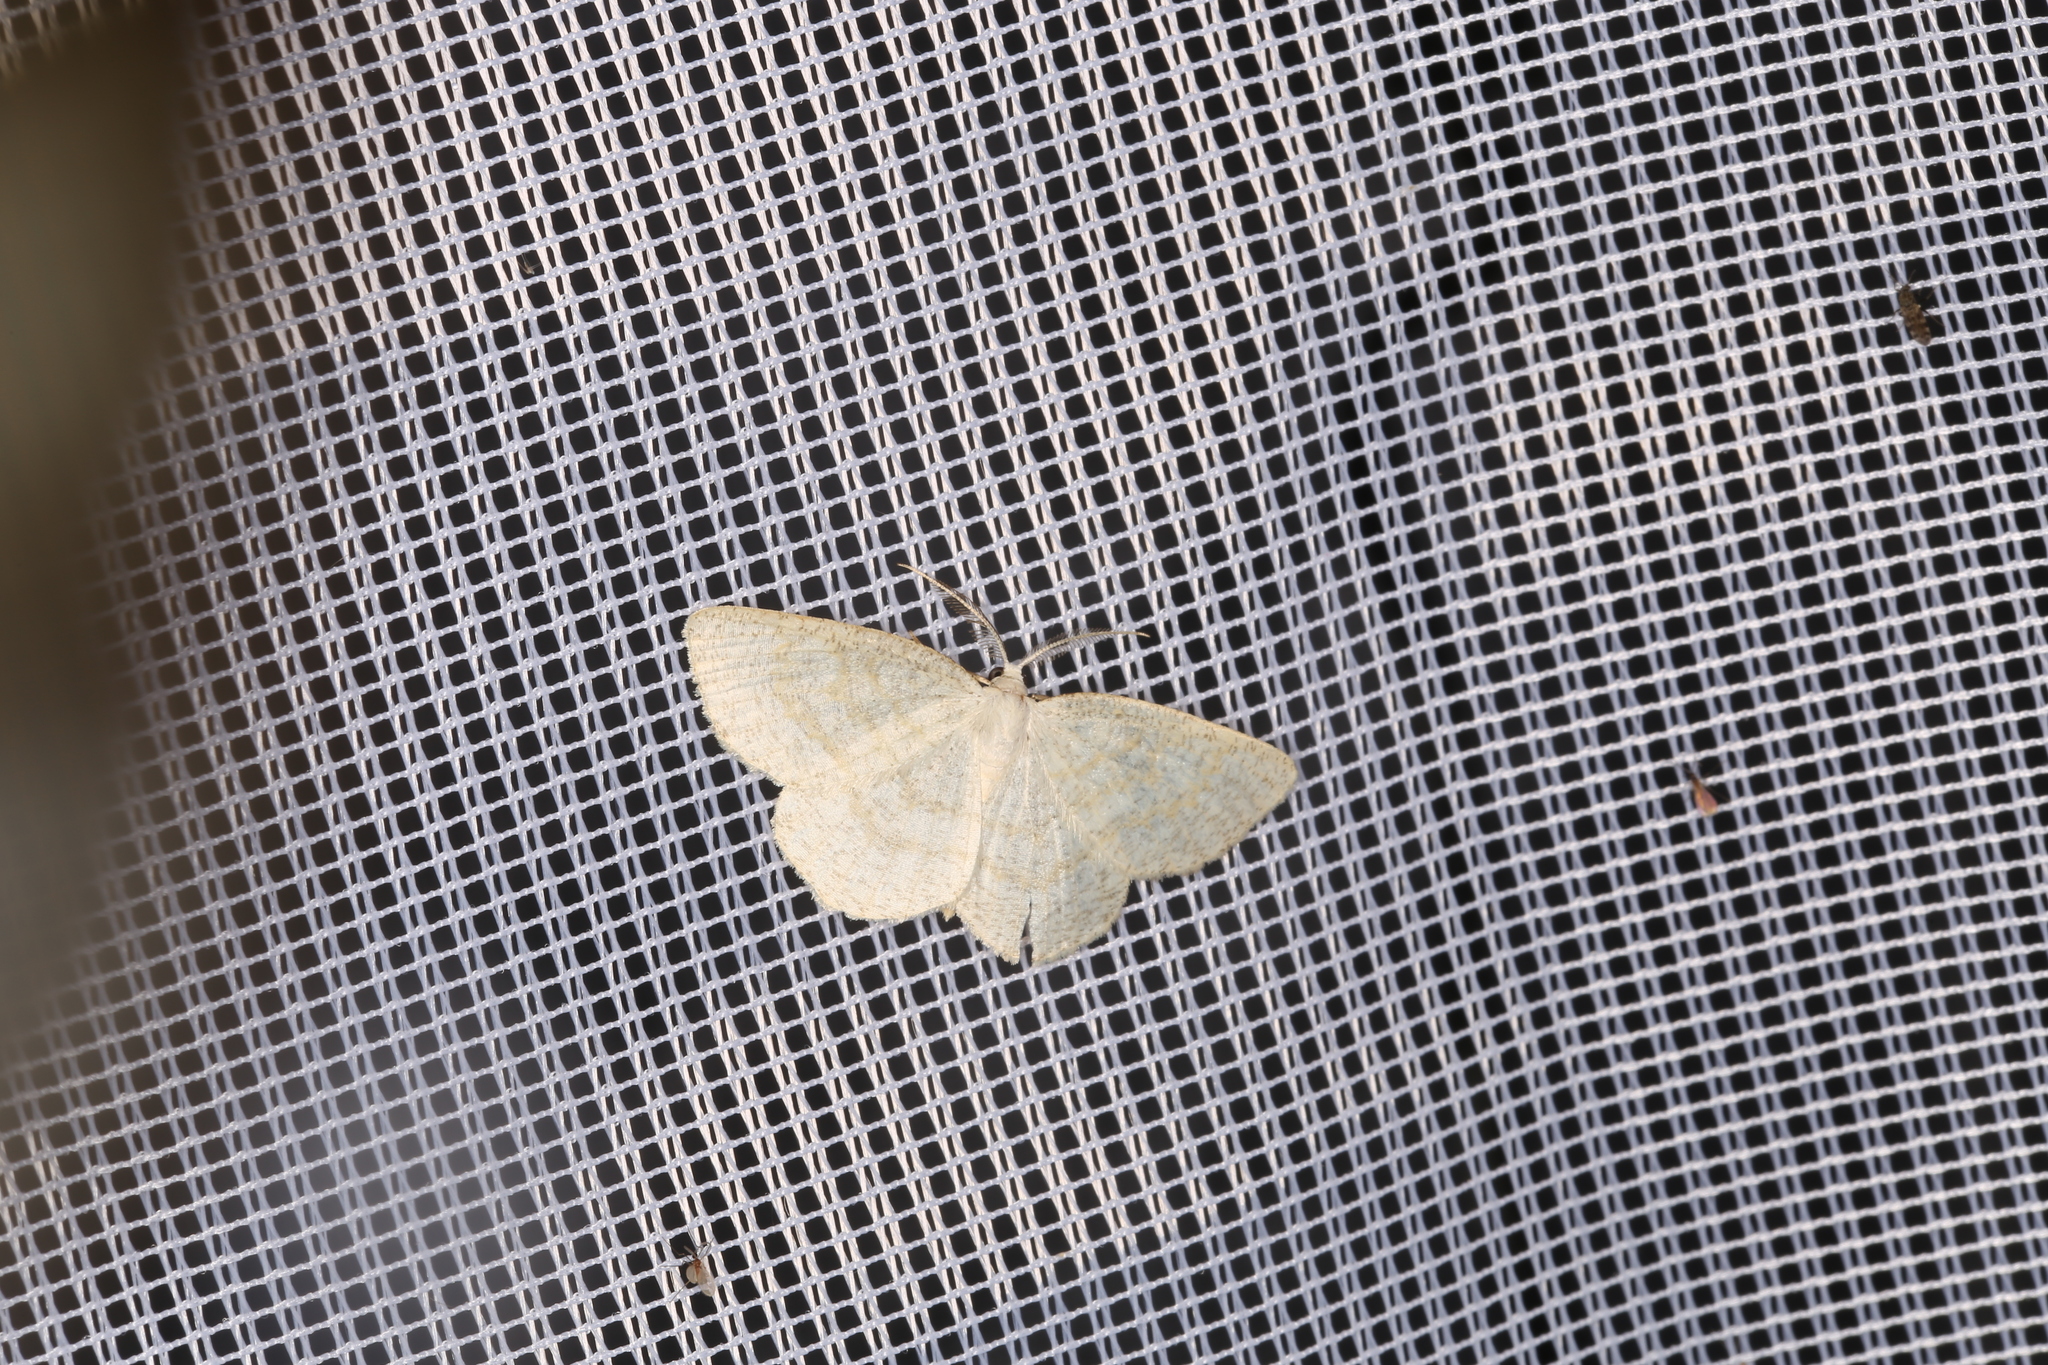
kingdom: Animalia
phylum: Arthropoda
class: Insecta
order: Lepidoptera
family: Geometridae
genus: Cabera
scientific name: Cabera exanthemata
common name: Common wave
